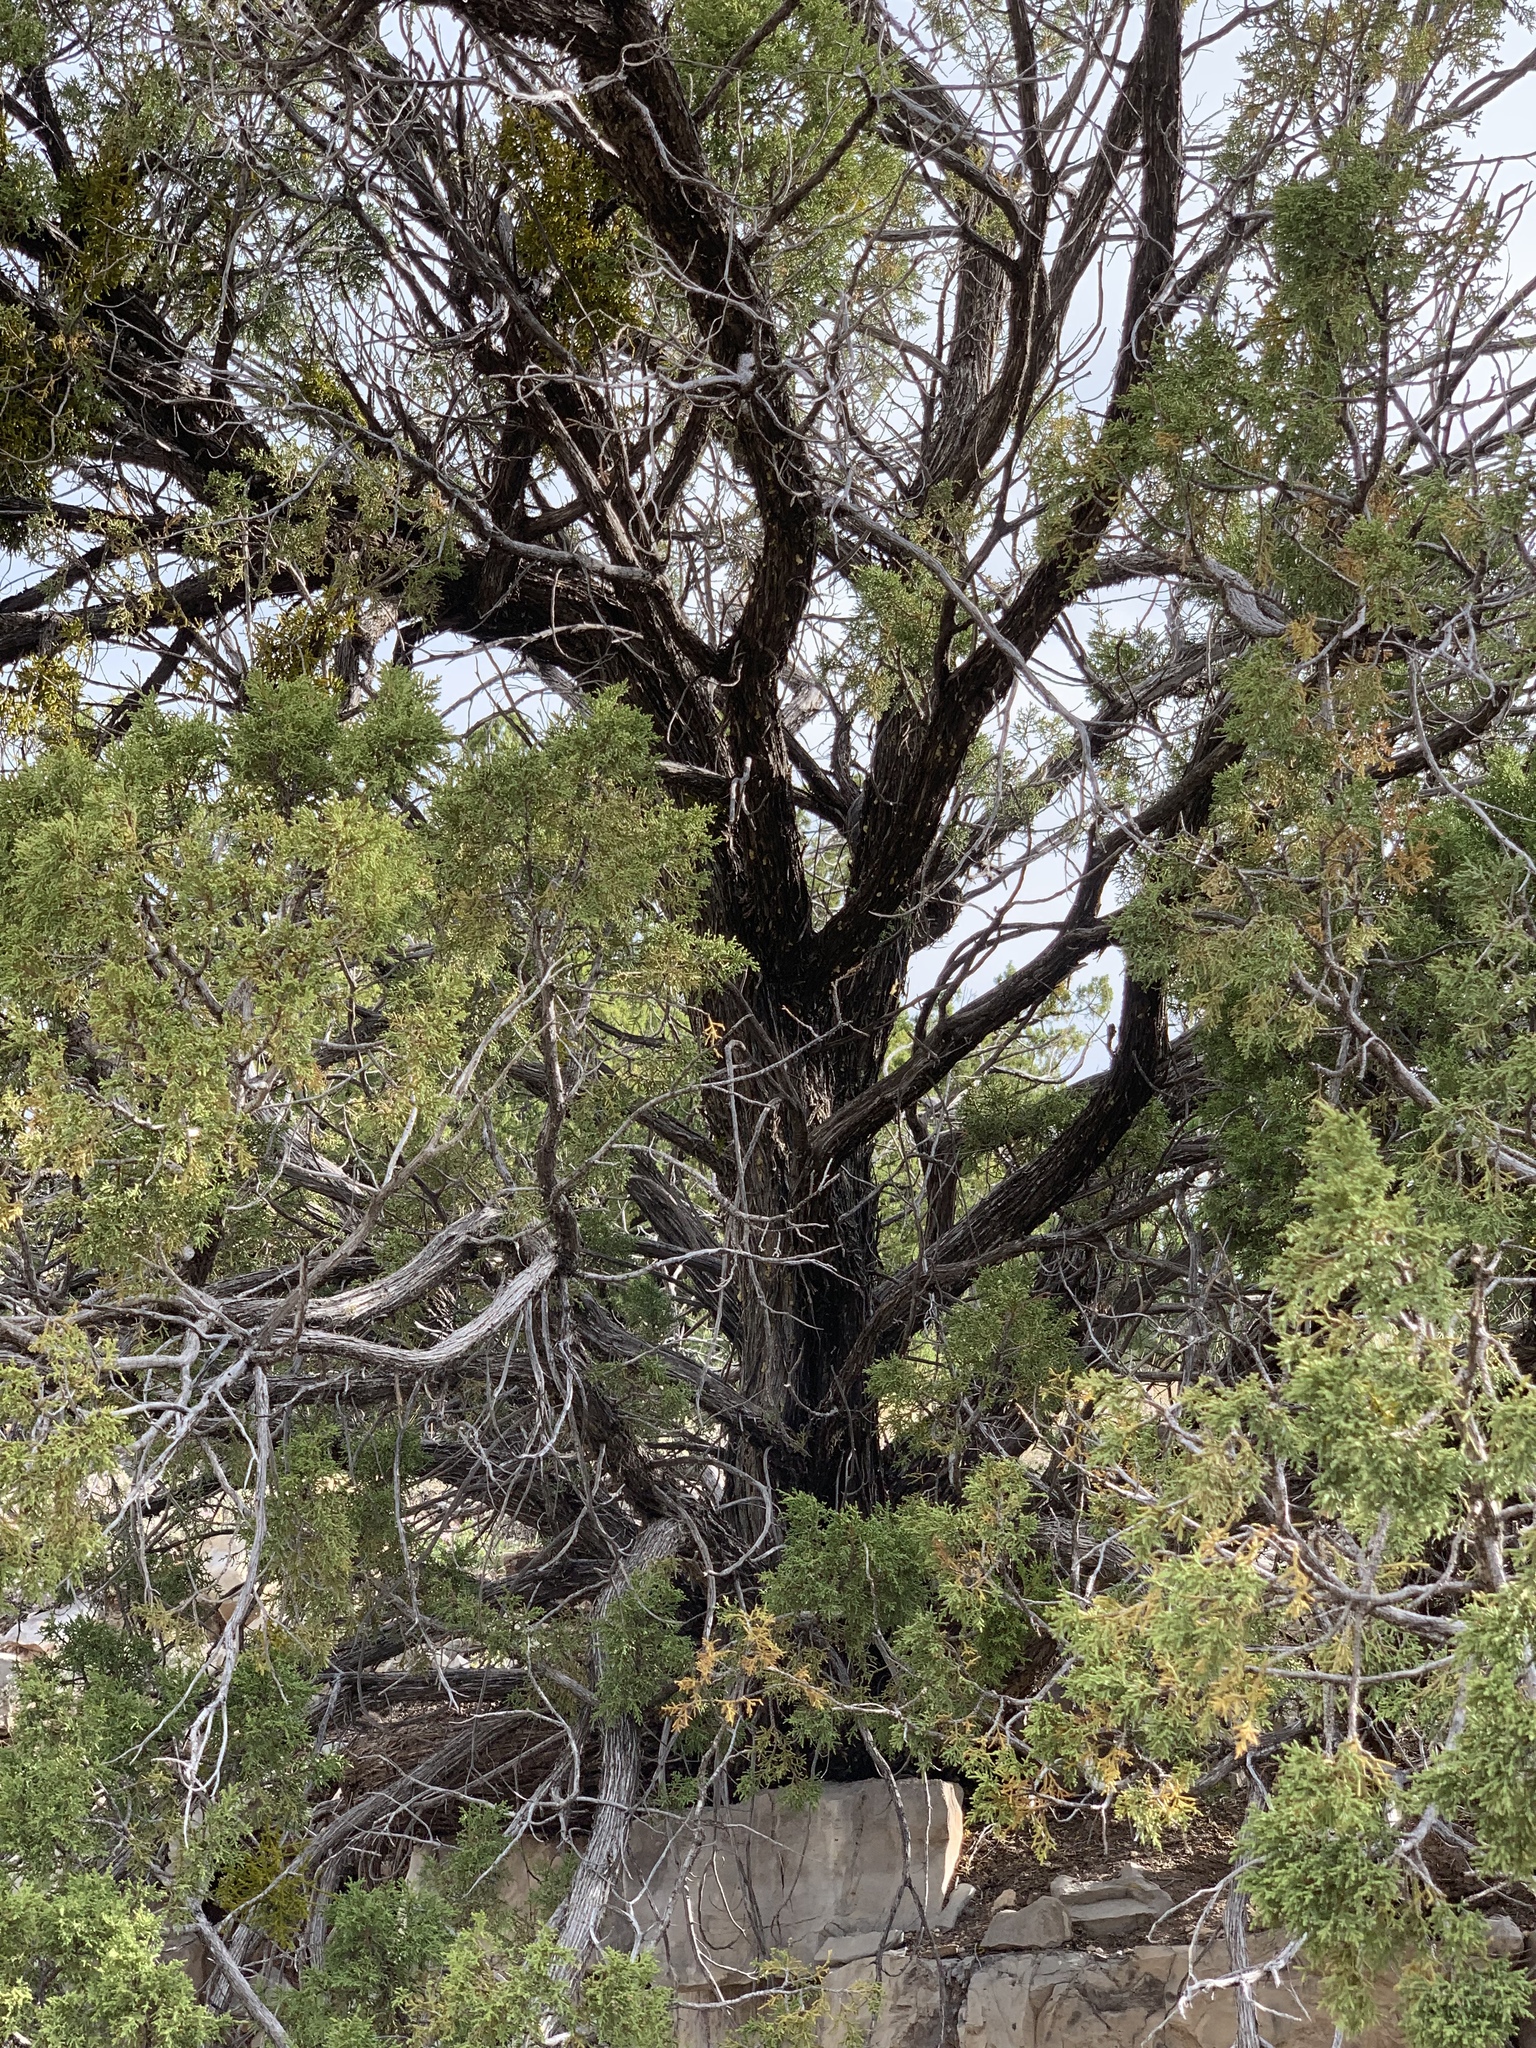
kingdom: Plantae
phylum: Tracheophyta
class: Pinopsida
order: Pinales
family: Cupressaceae
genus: Juniperus
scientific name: Juniperus monosperma
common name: One-seed juniper
